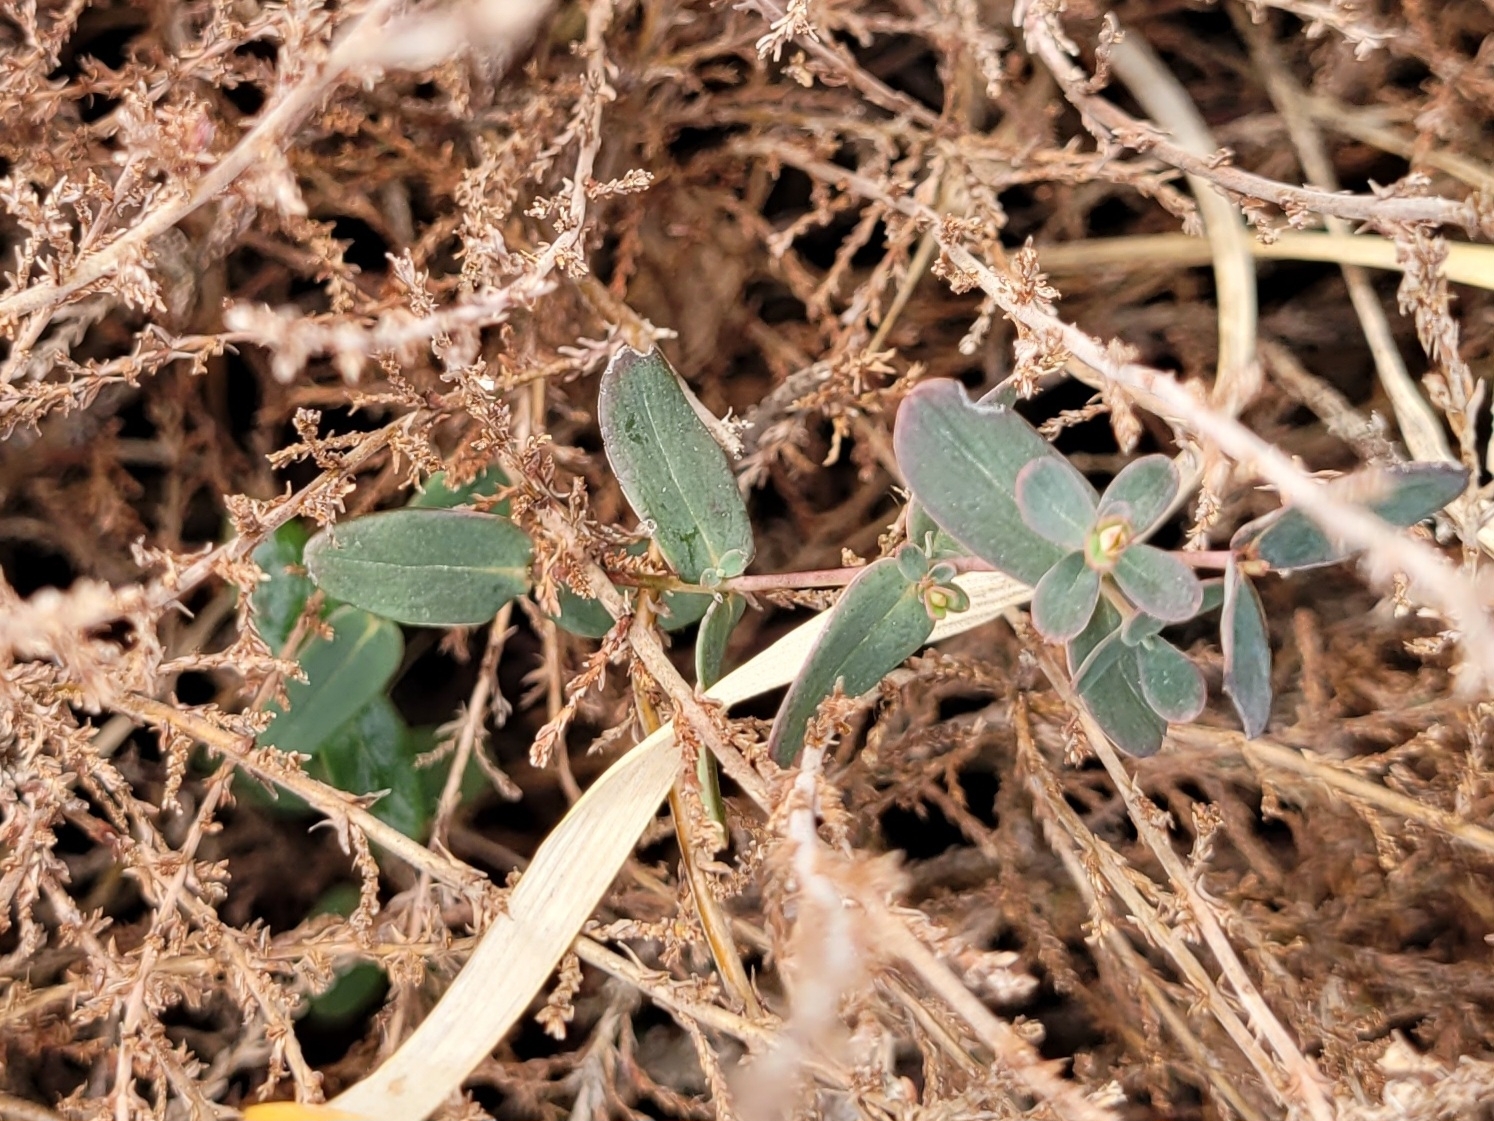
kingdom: Plantae
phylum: Tracheophyta
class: Magnoliopsida
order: Malpighiales
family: Hypericaceae
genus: Hypericum
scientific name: Hypericum pulchrum
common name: Slender st. john's-wort
